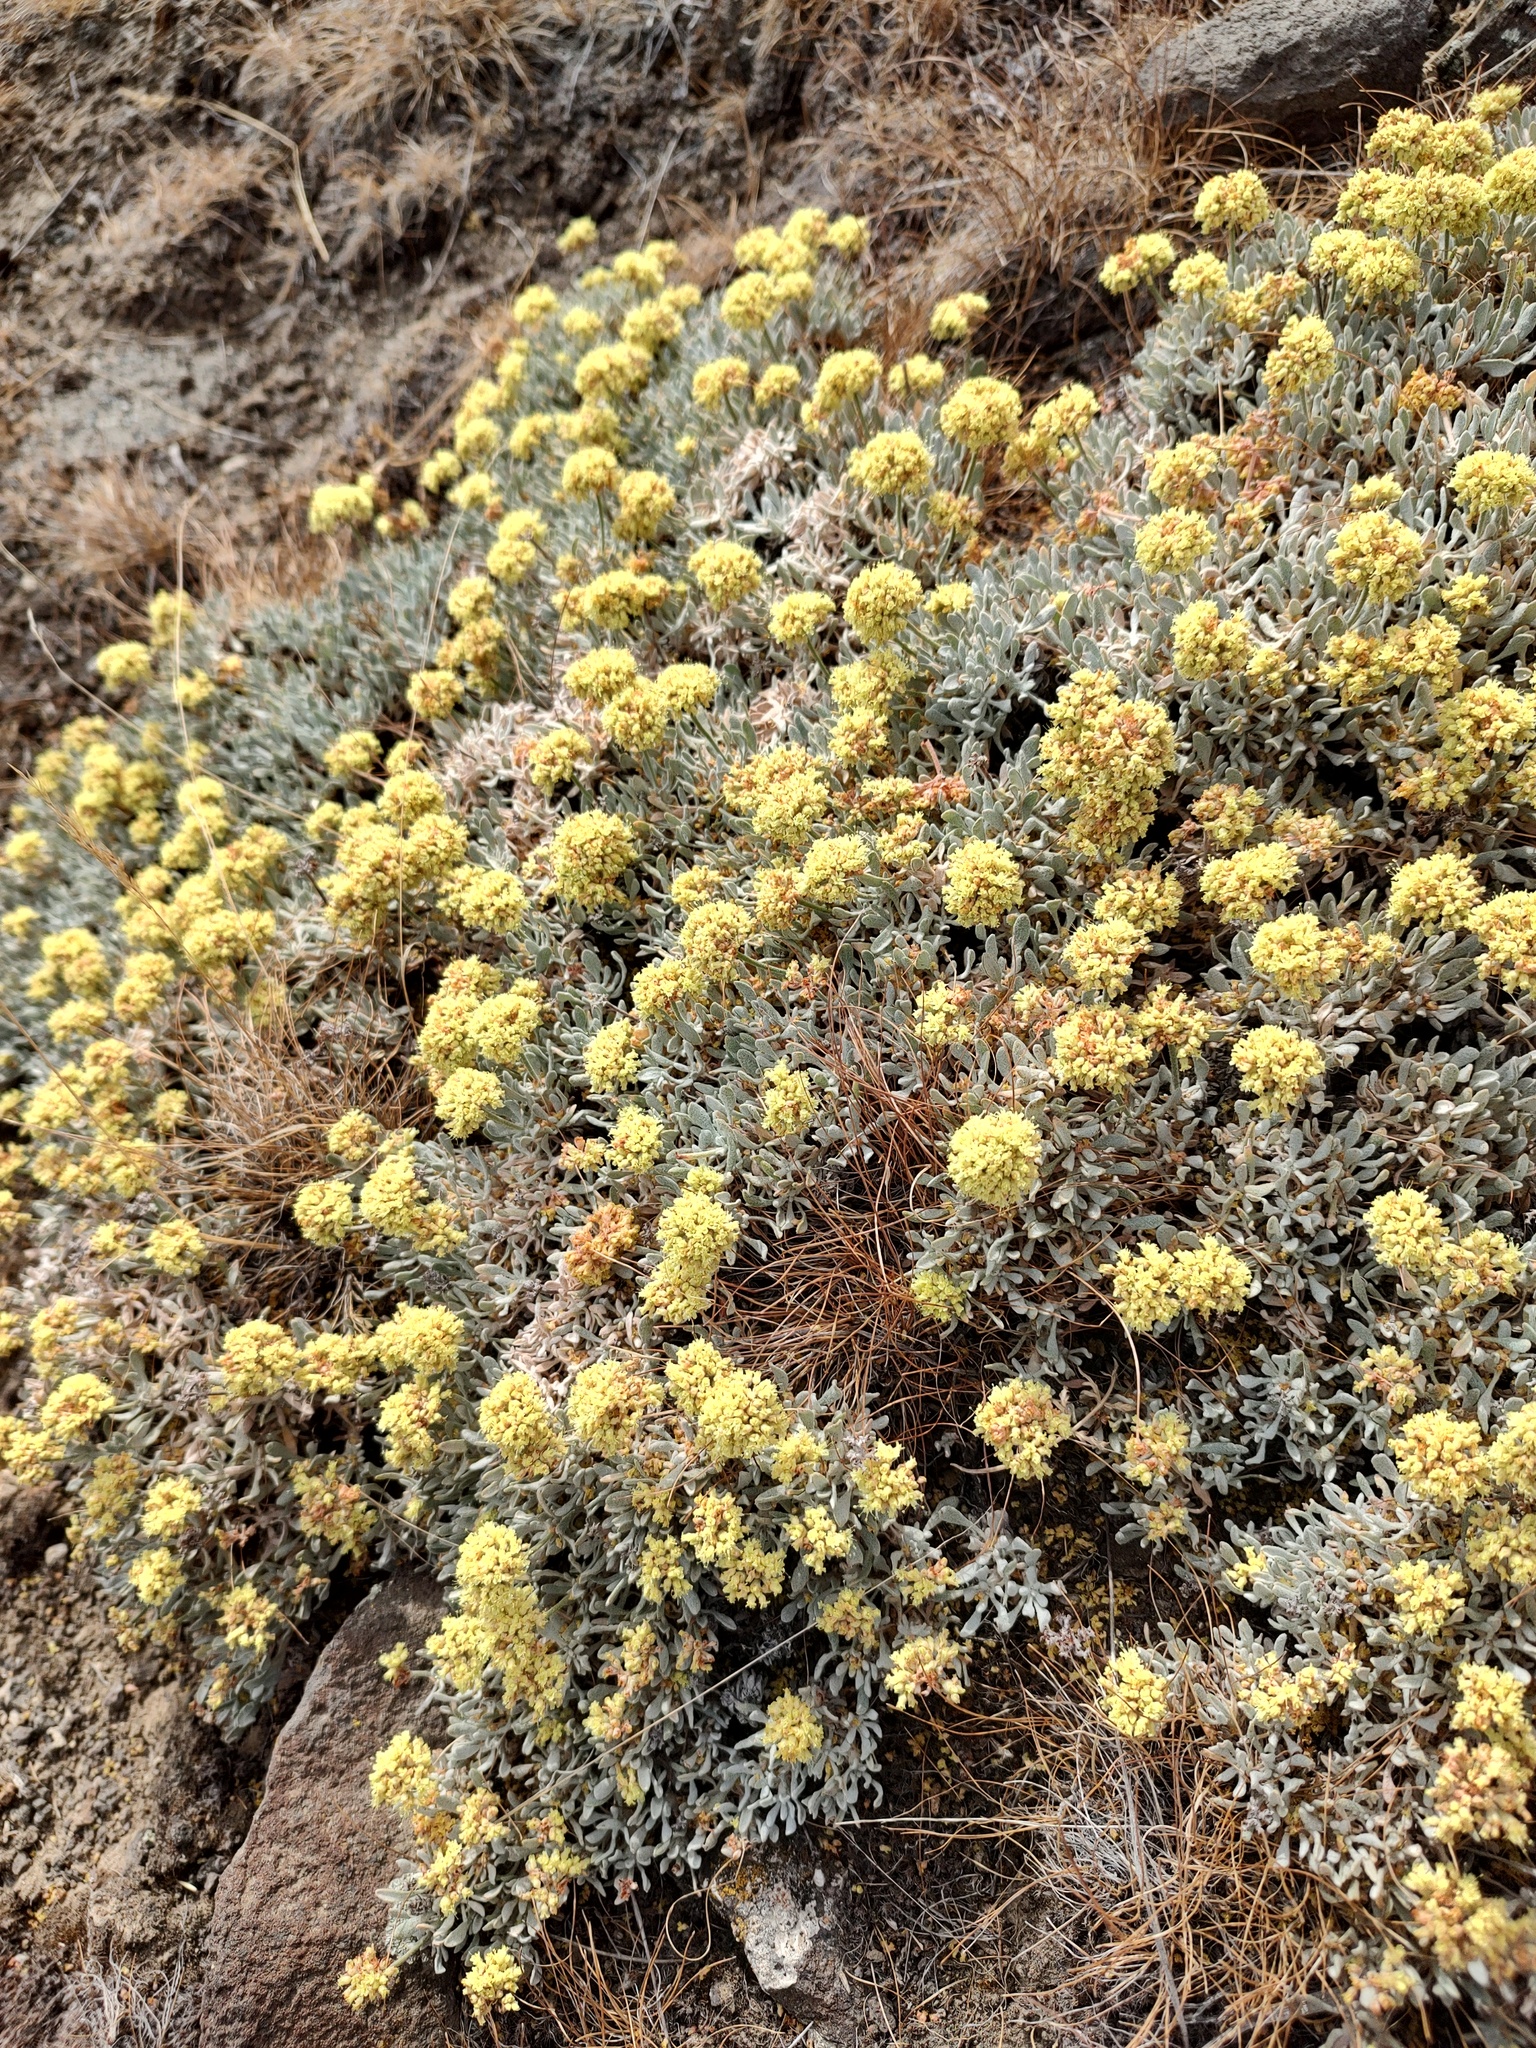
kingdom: Plantae
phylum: Tracheophyta
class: Magnoliopsida
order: Caryophyllales
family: Polygonaceae
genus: Eriogonum
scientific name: Eriogonum codium
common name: Umtanum desert wild buckwheat
